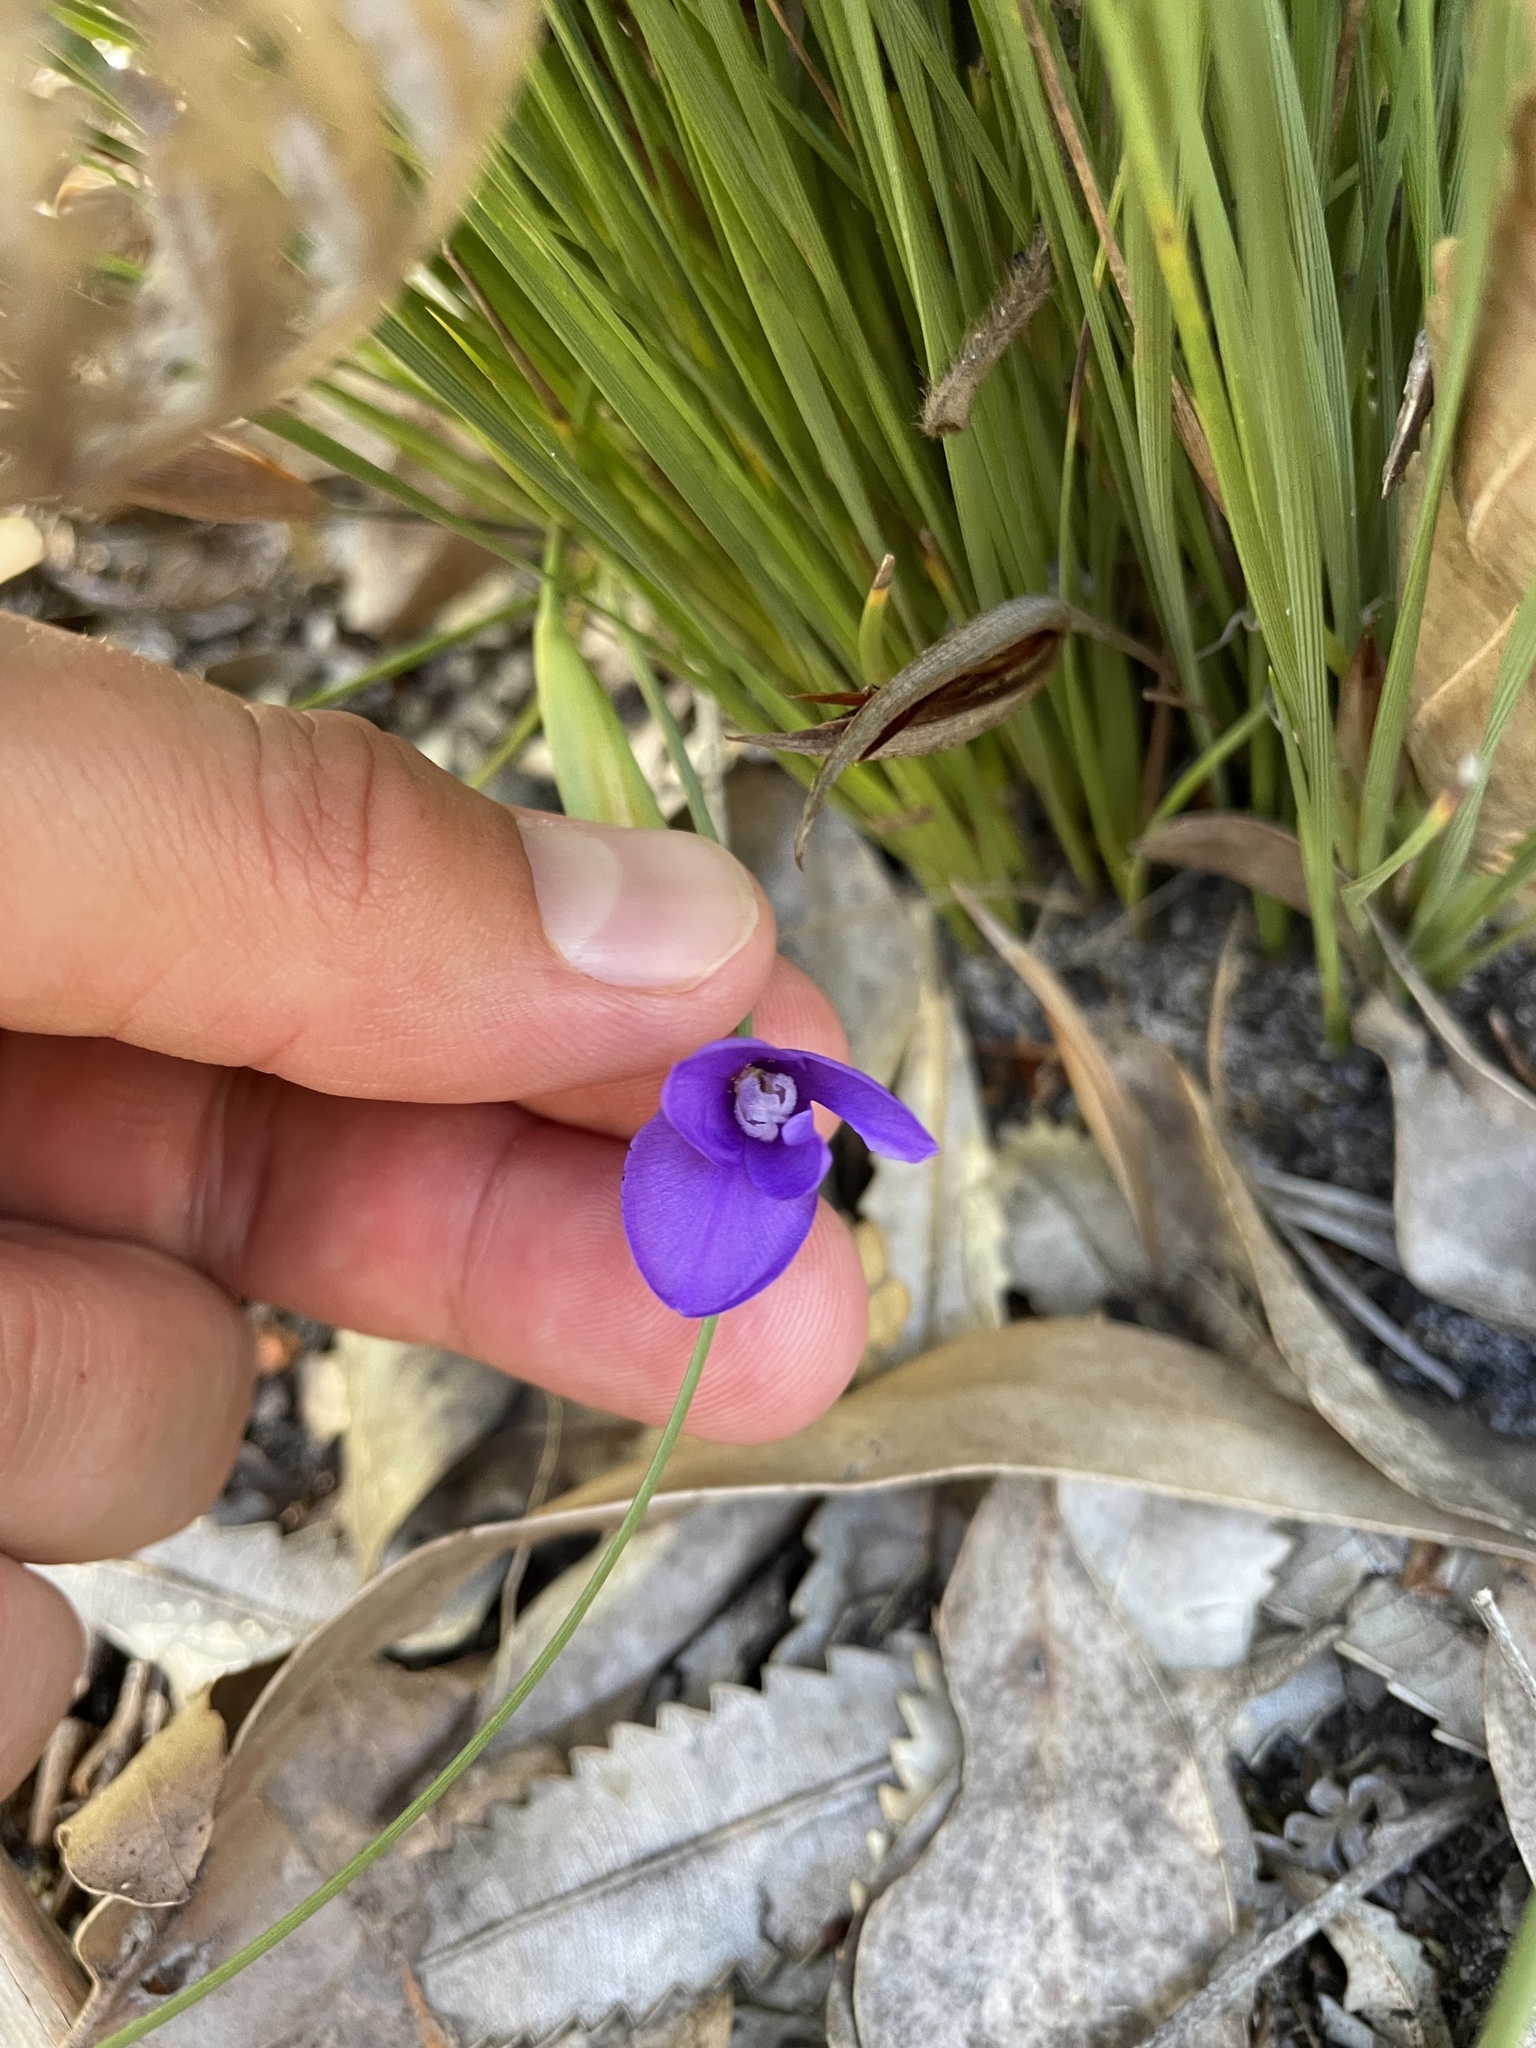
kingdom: Plantae
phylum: Tracheophyta
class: Liliopsida
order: Asparagales
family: Iridaceae
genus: Patersonia
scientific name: Patersonia fragilis
